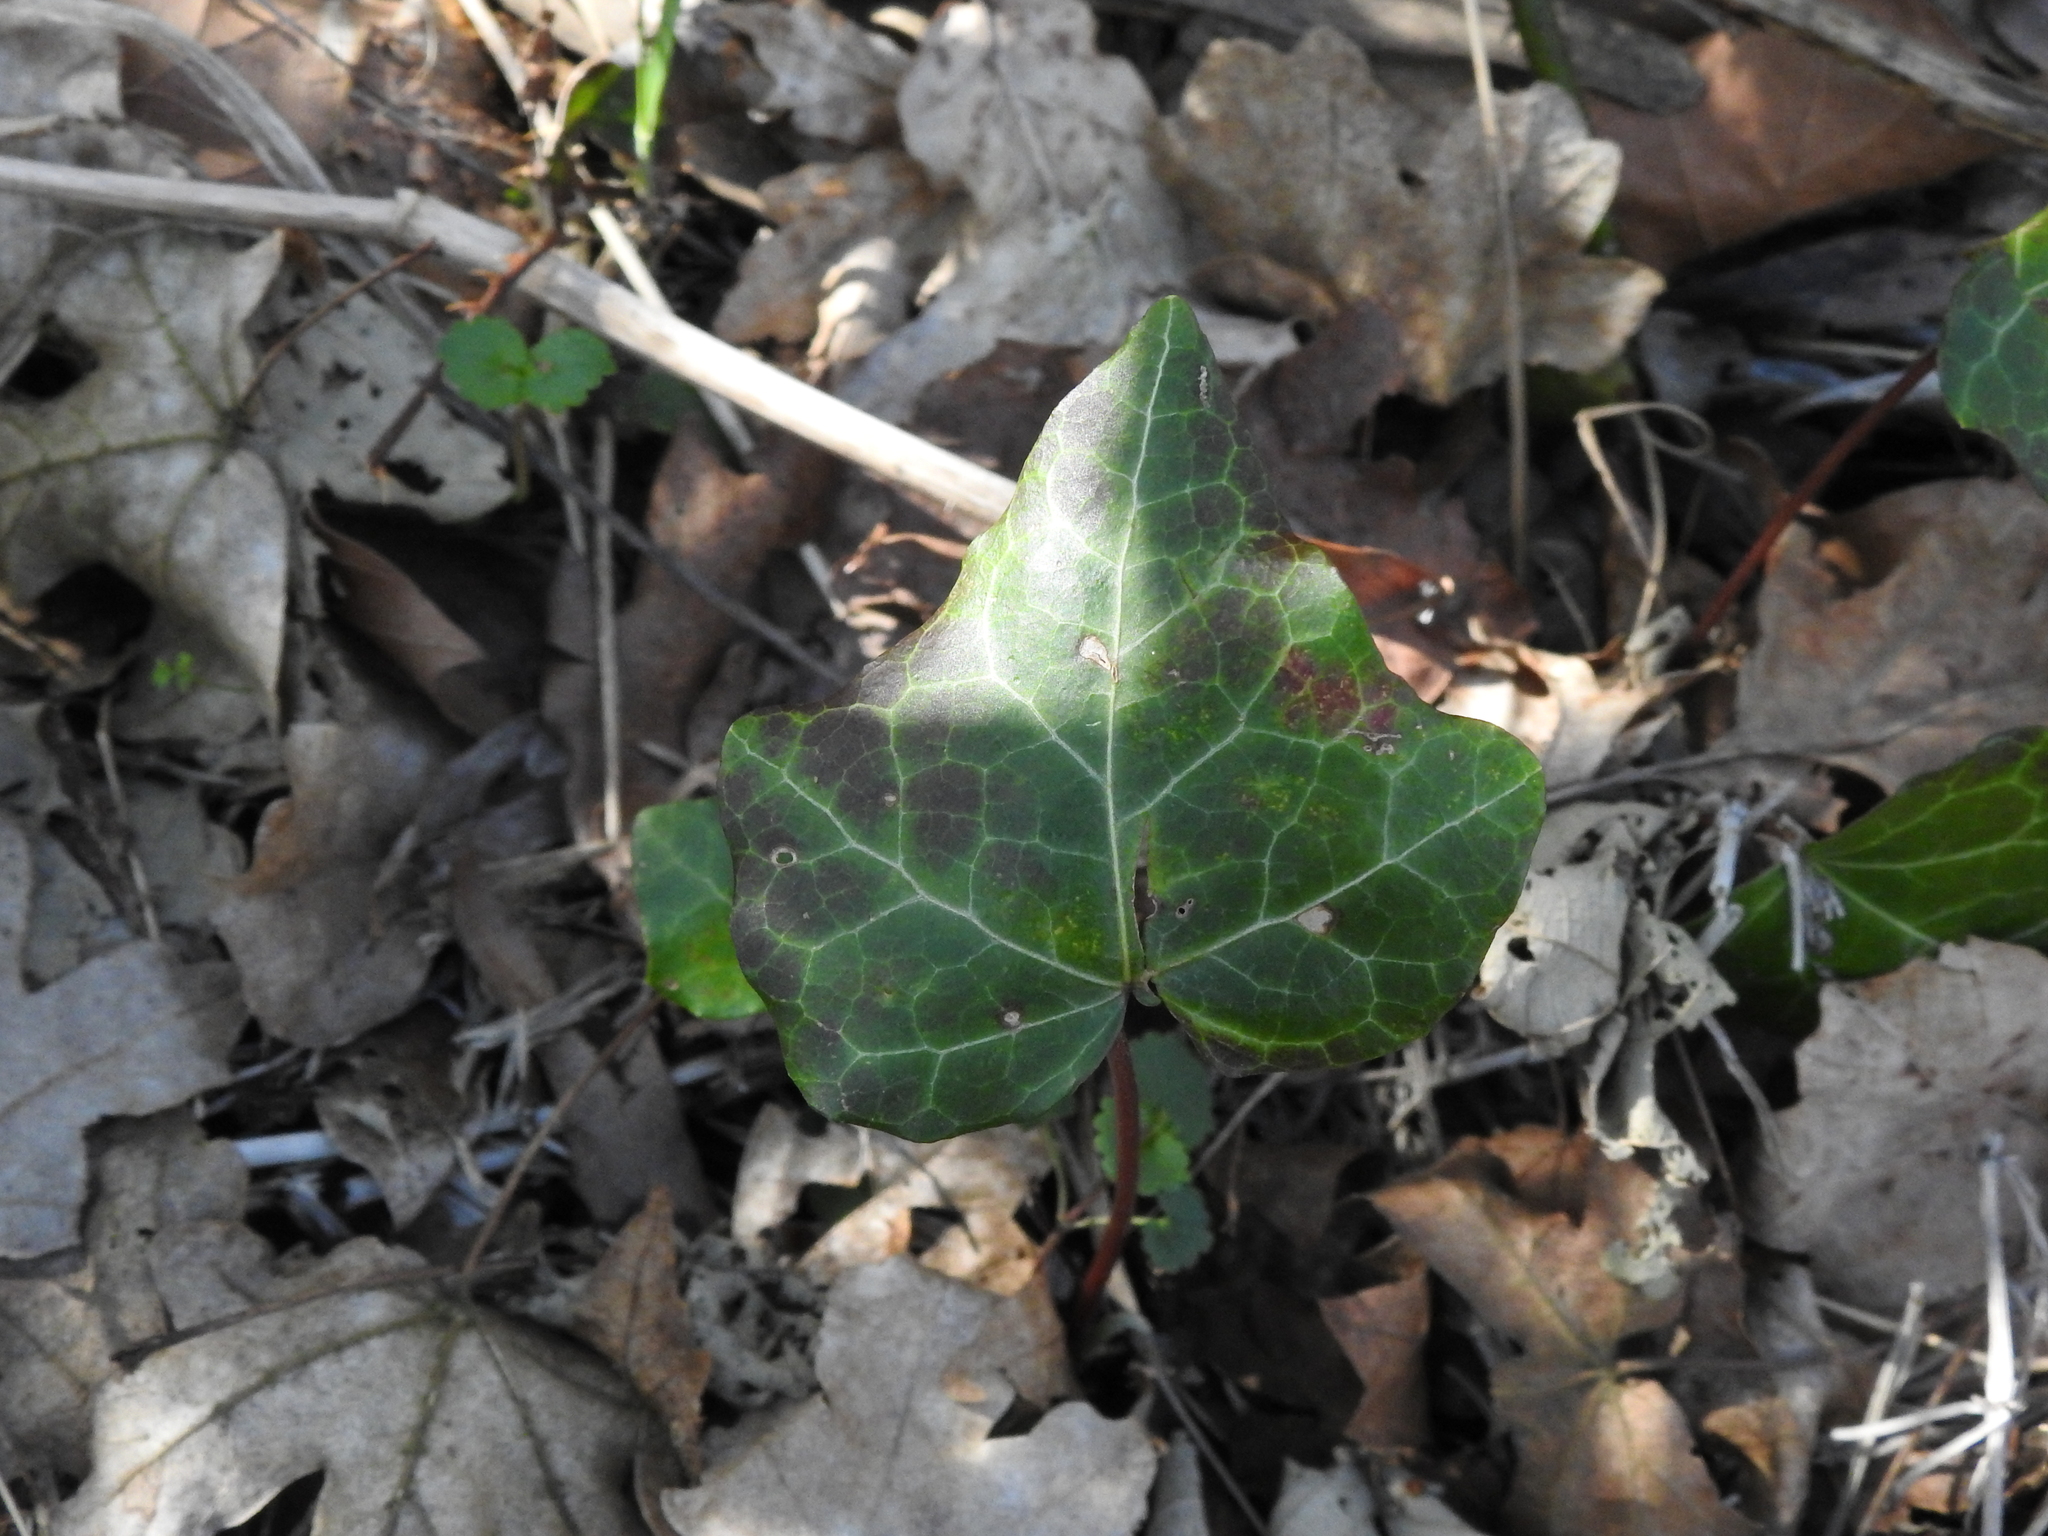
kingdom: Plantae
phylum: Tracheophyta
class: Magnoliopsida
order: Apiales
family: Araliaceae
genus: Hedera
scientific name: Hedera helix
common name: Ivy
